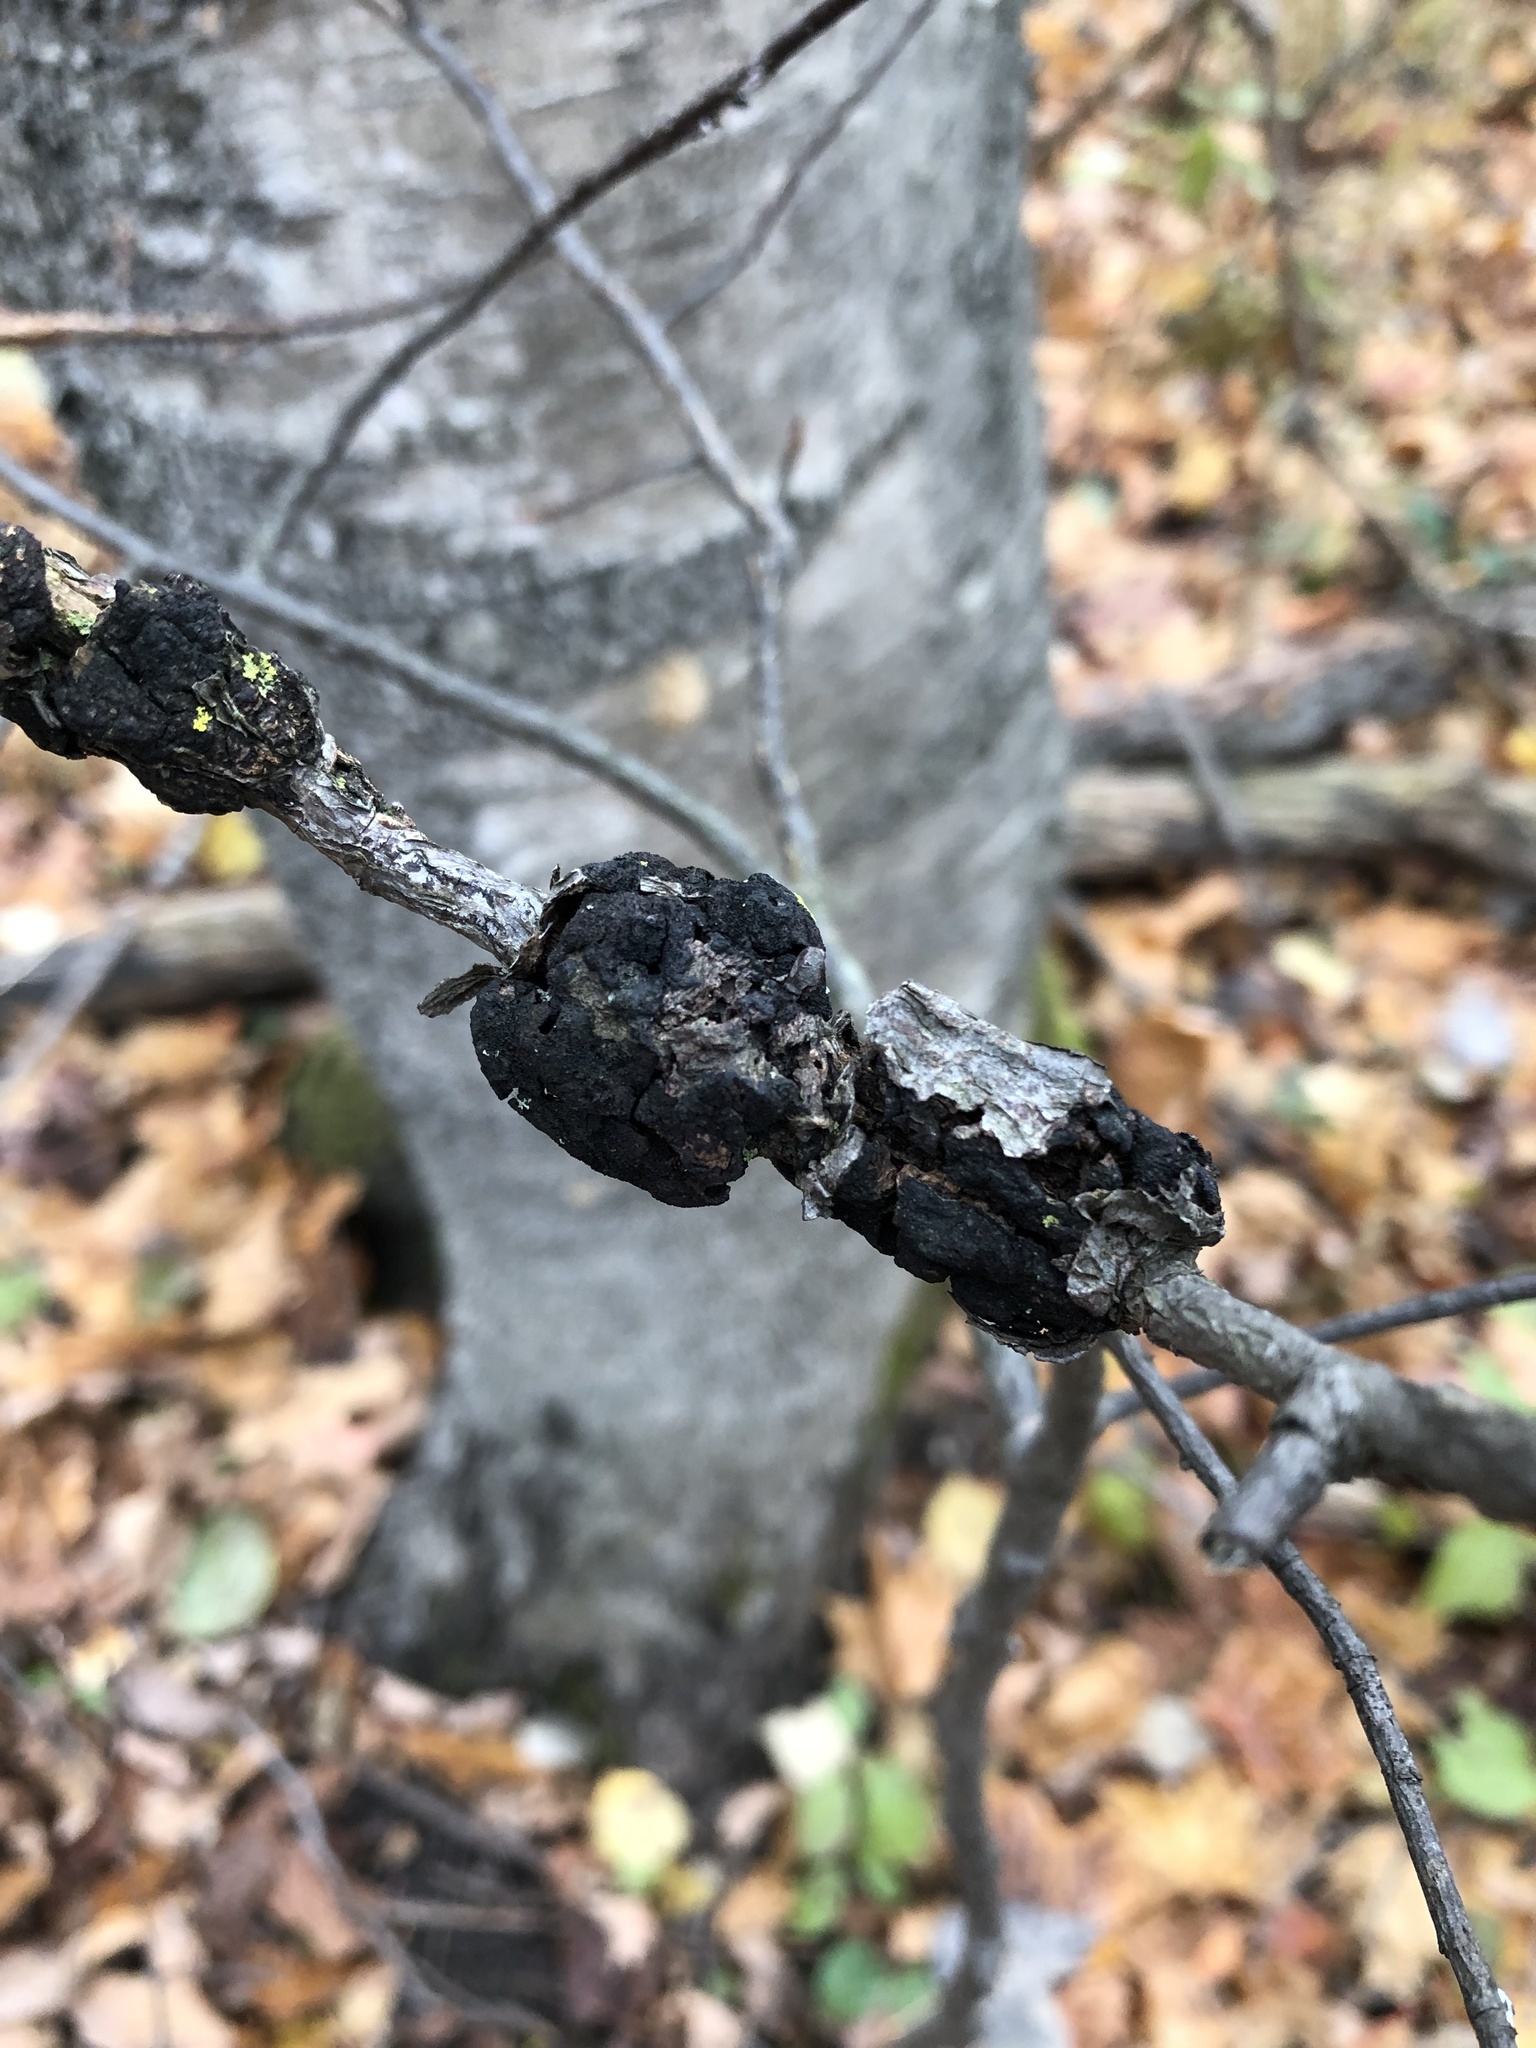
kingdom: Fungi
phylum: Ascomycota
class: Dothideomycetes
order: Venturiales
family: Venturiaceae
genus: Apiosporina
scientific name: Apiosporina morbosa
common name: Black knot
